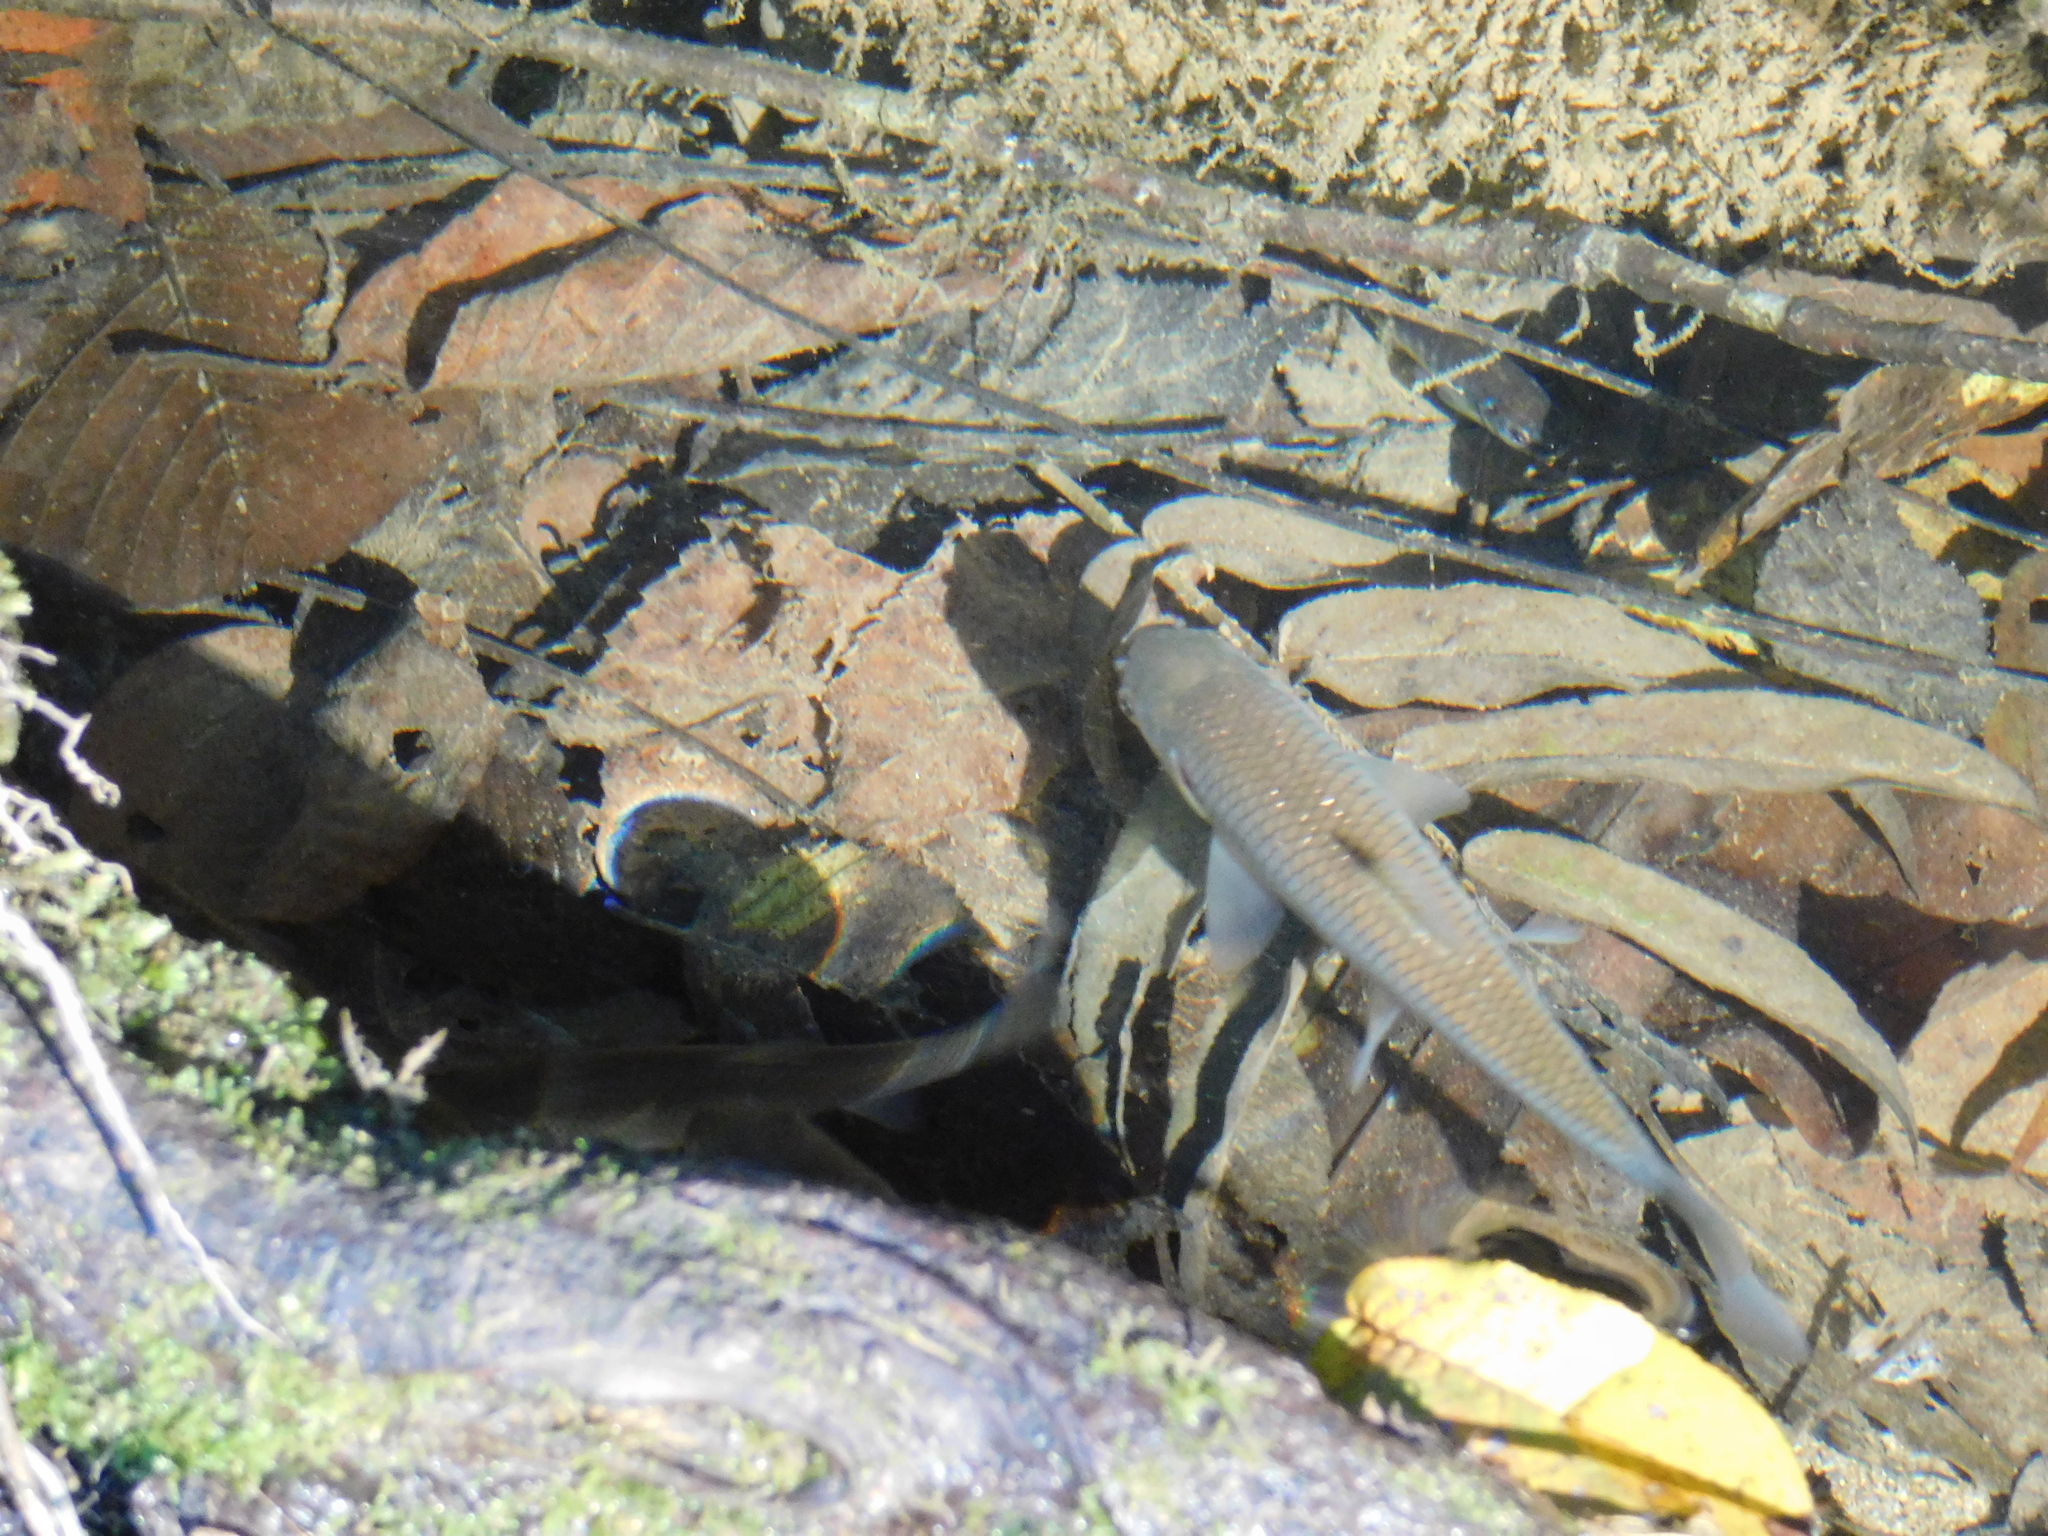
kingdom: Animalia
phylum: Chordata
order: Cypriniformes
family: Cyprinidae
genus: Squalius
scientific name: Squalius orientalis
